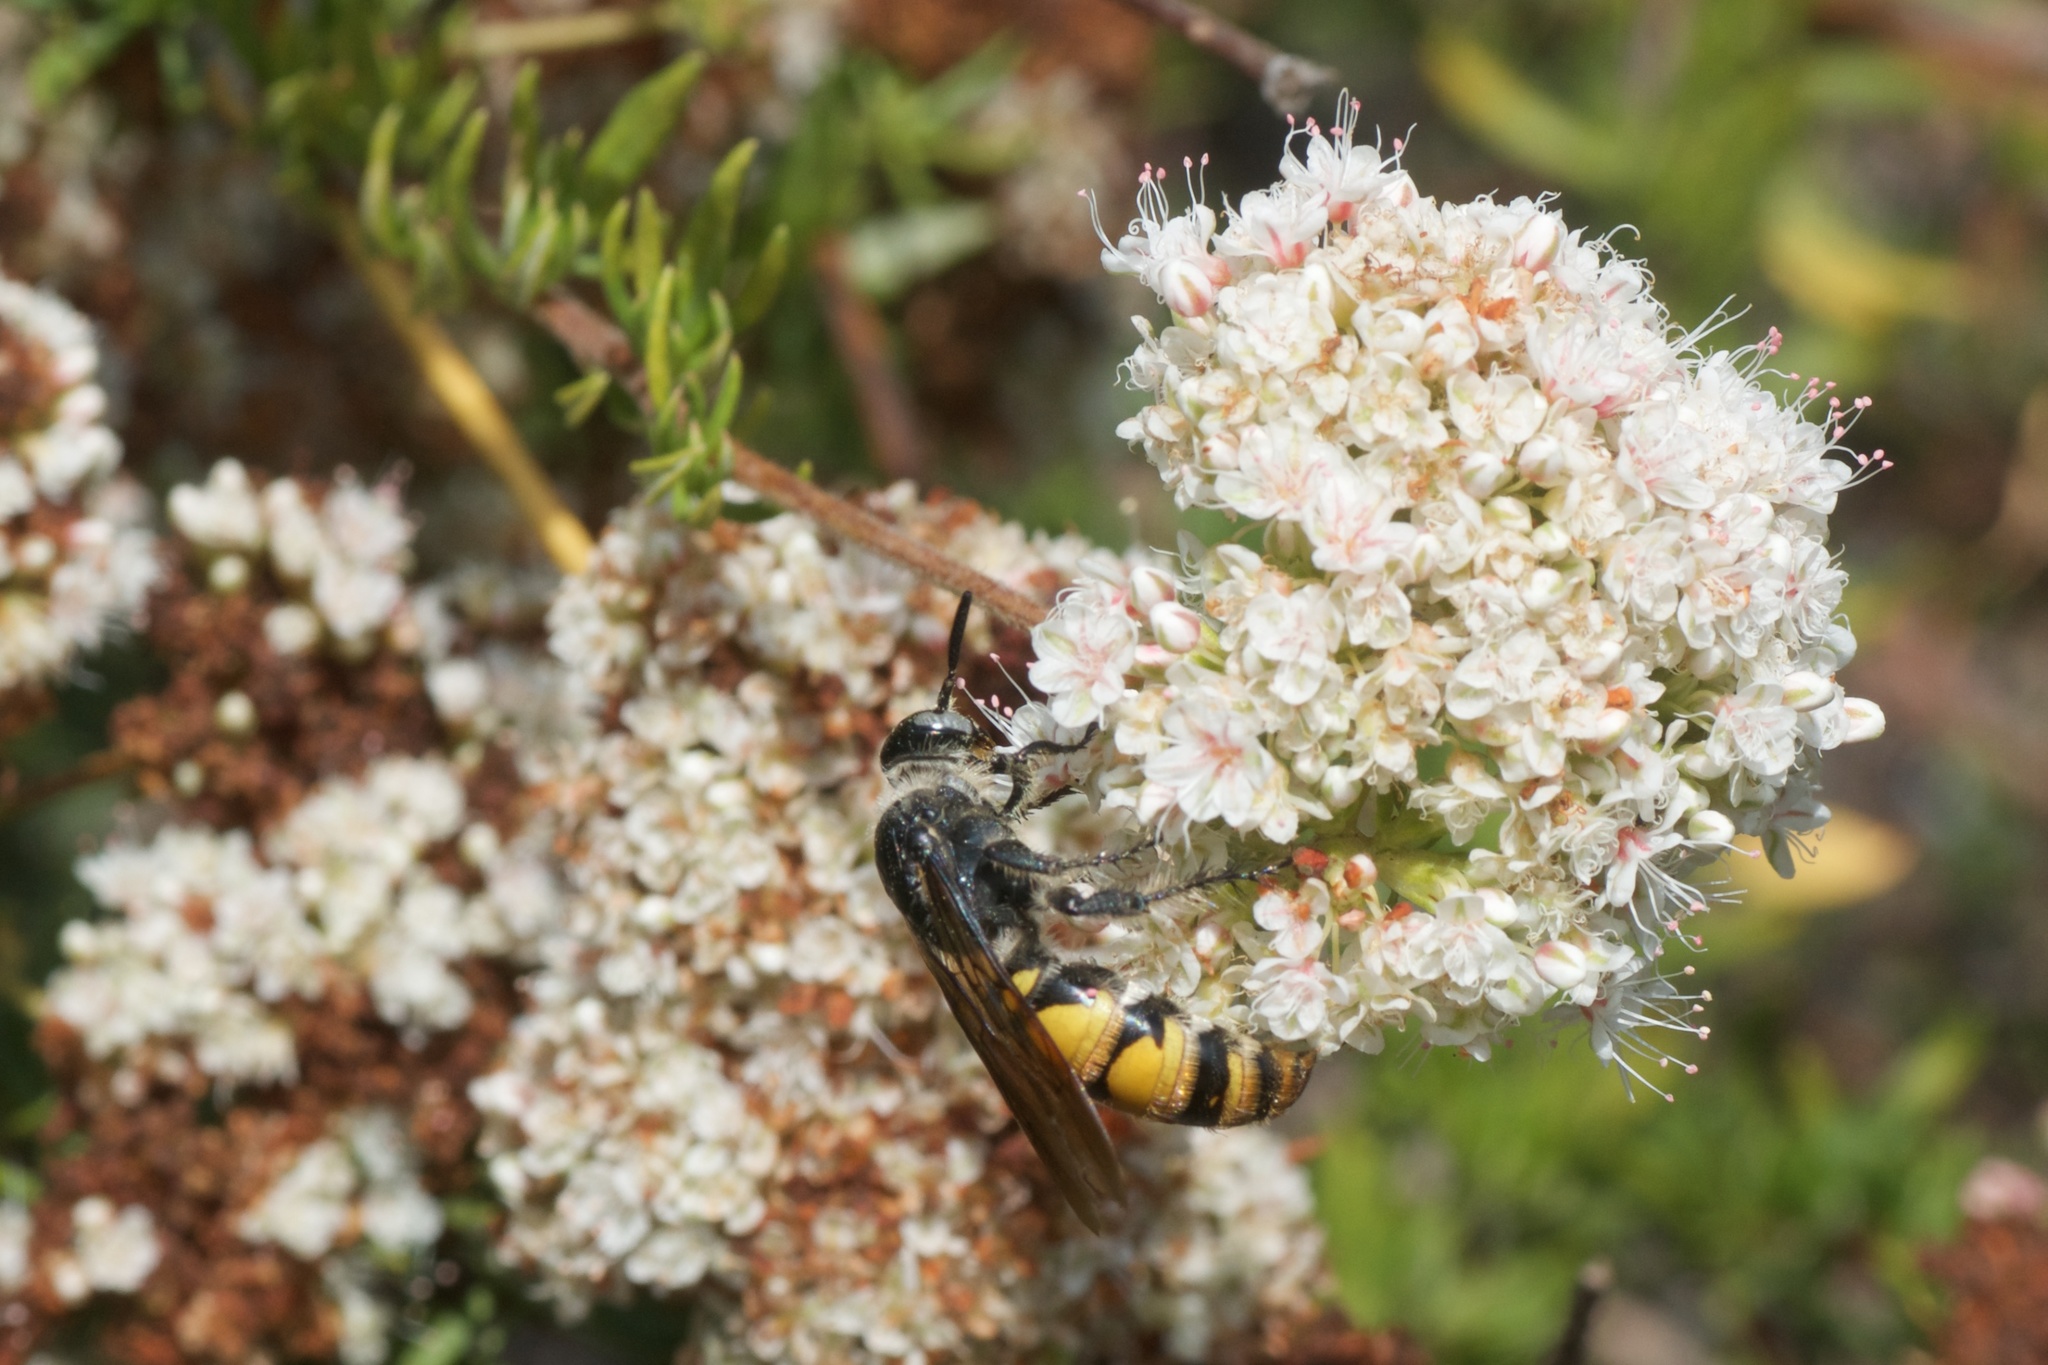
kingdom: Animalia
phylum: Arthropoda
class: Insecta
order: Hymenoptera
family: Scoliidae
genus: Dielis
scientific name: Dielis tolteca
